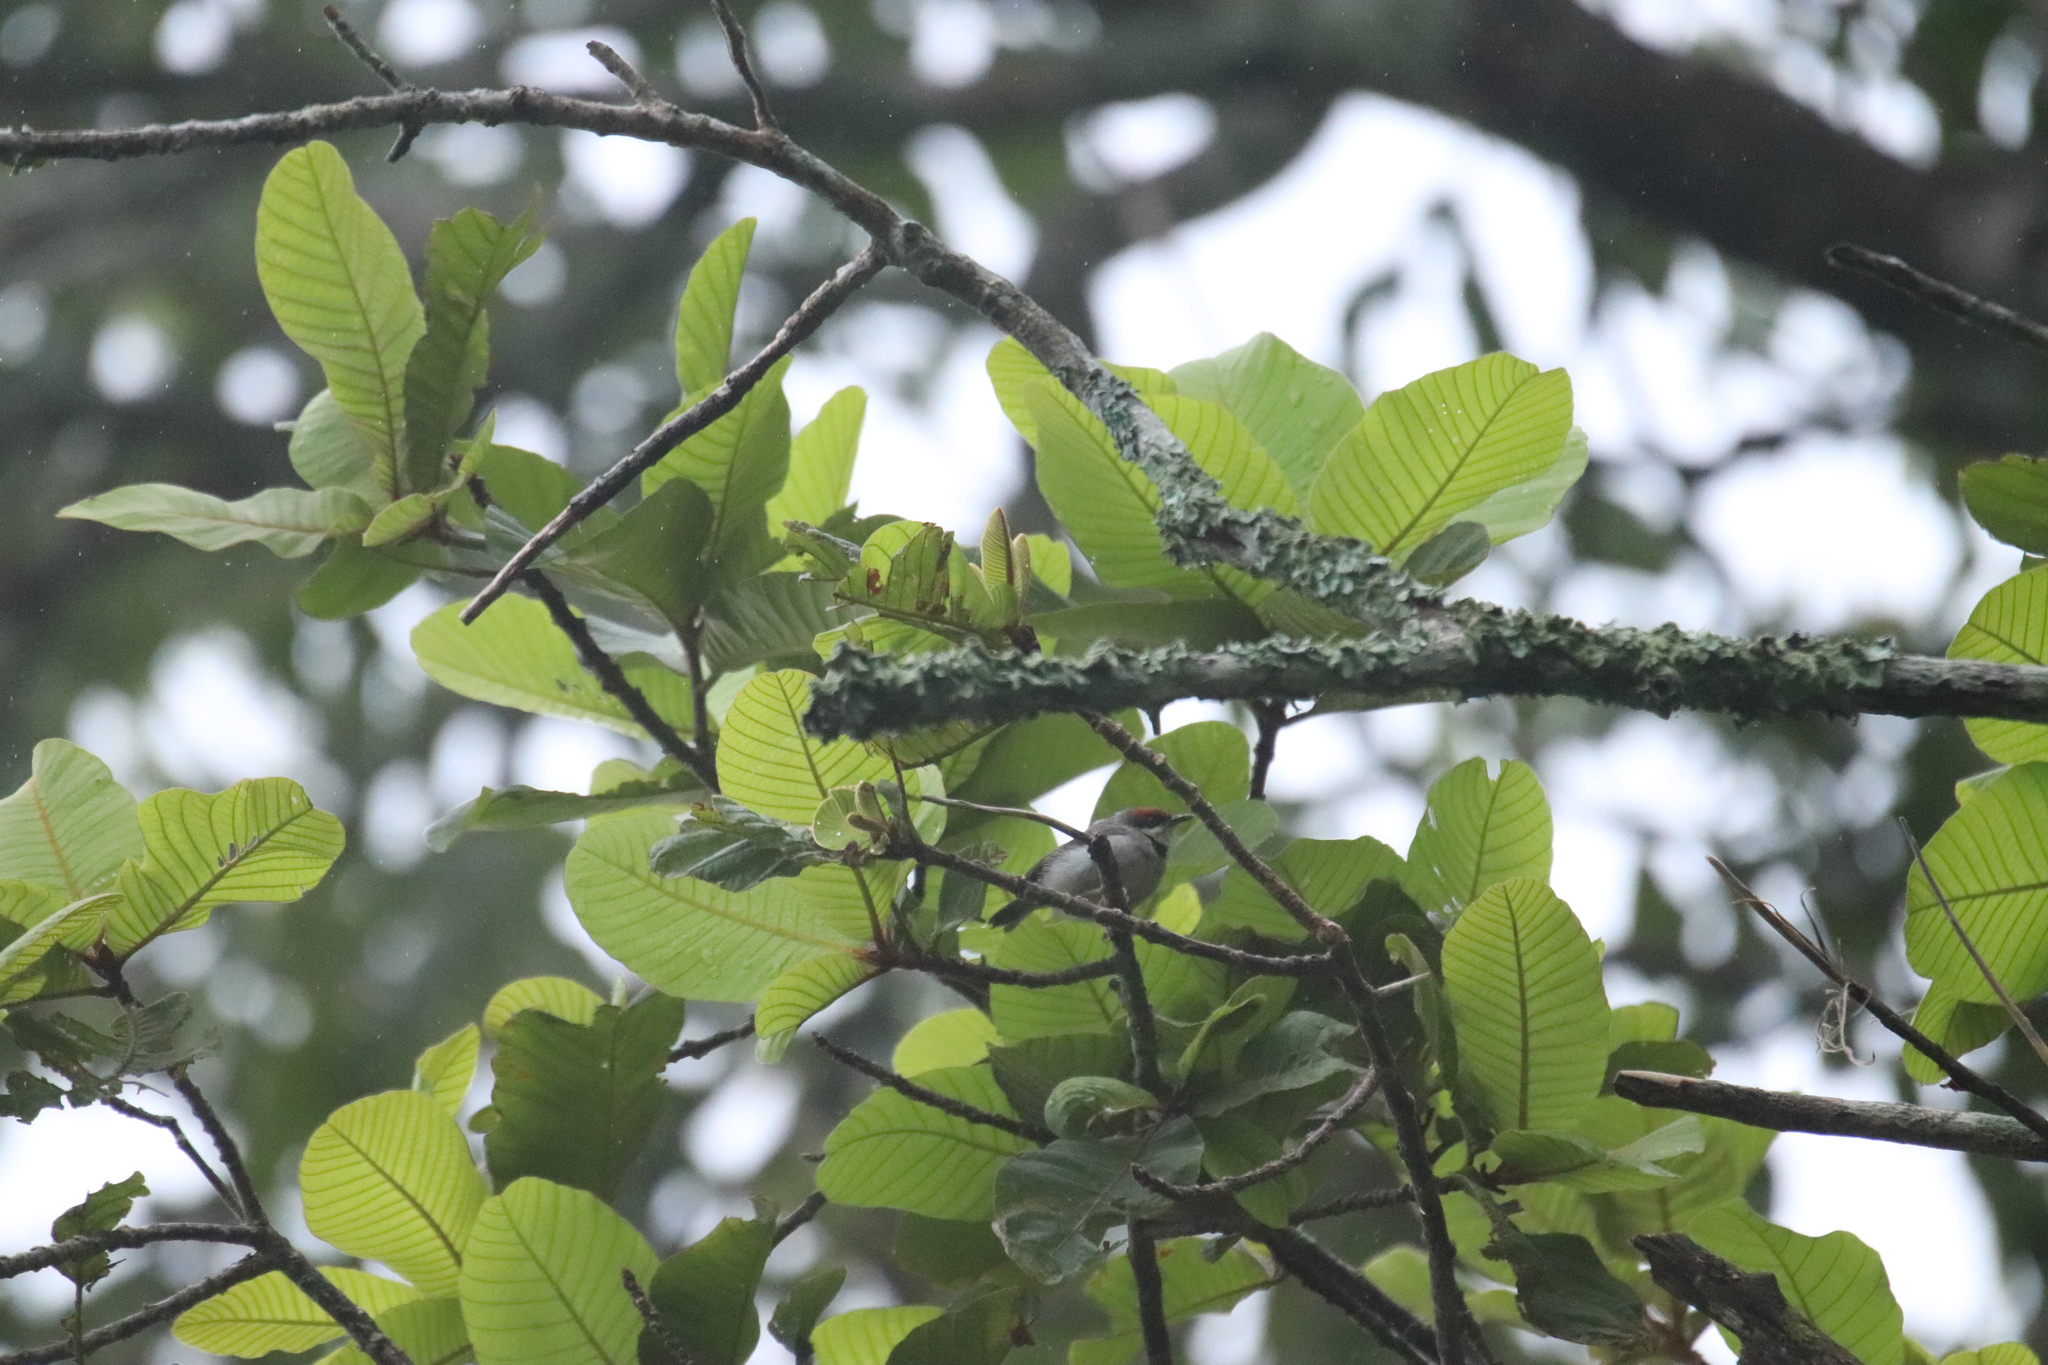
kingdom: Animalia
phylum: Chordata
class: Aves
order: Passeriformes
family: Cisticolidae
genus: Eremomela
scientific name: Eremomela badiceps
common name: Rufous-crowned eremomela
